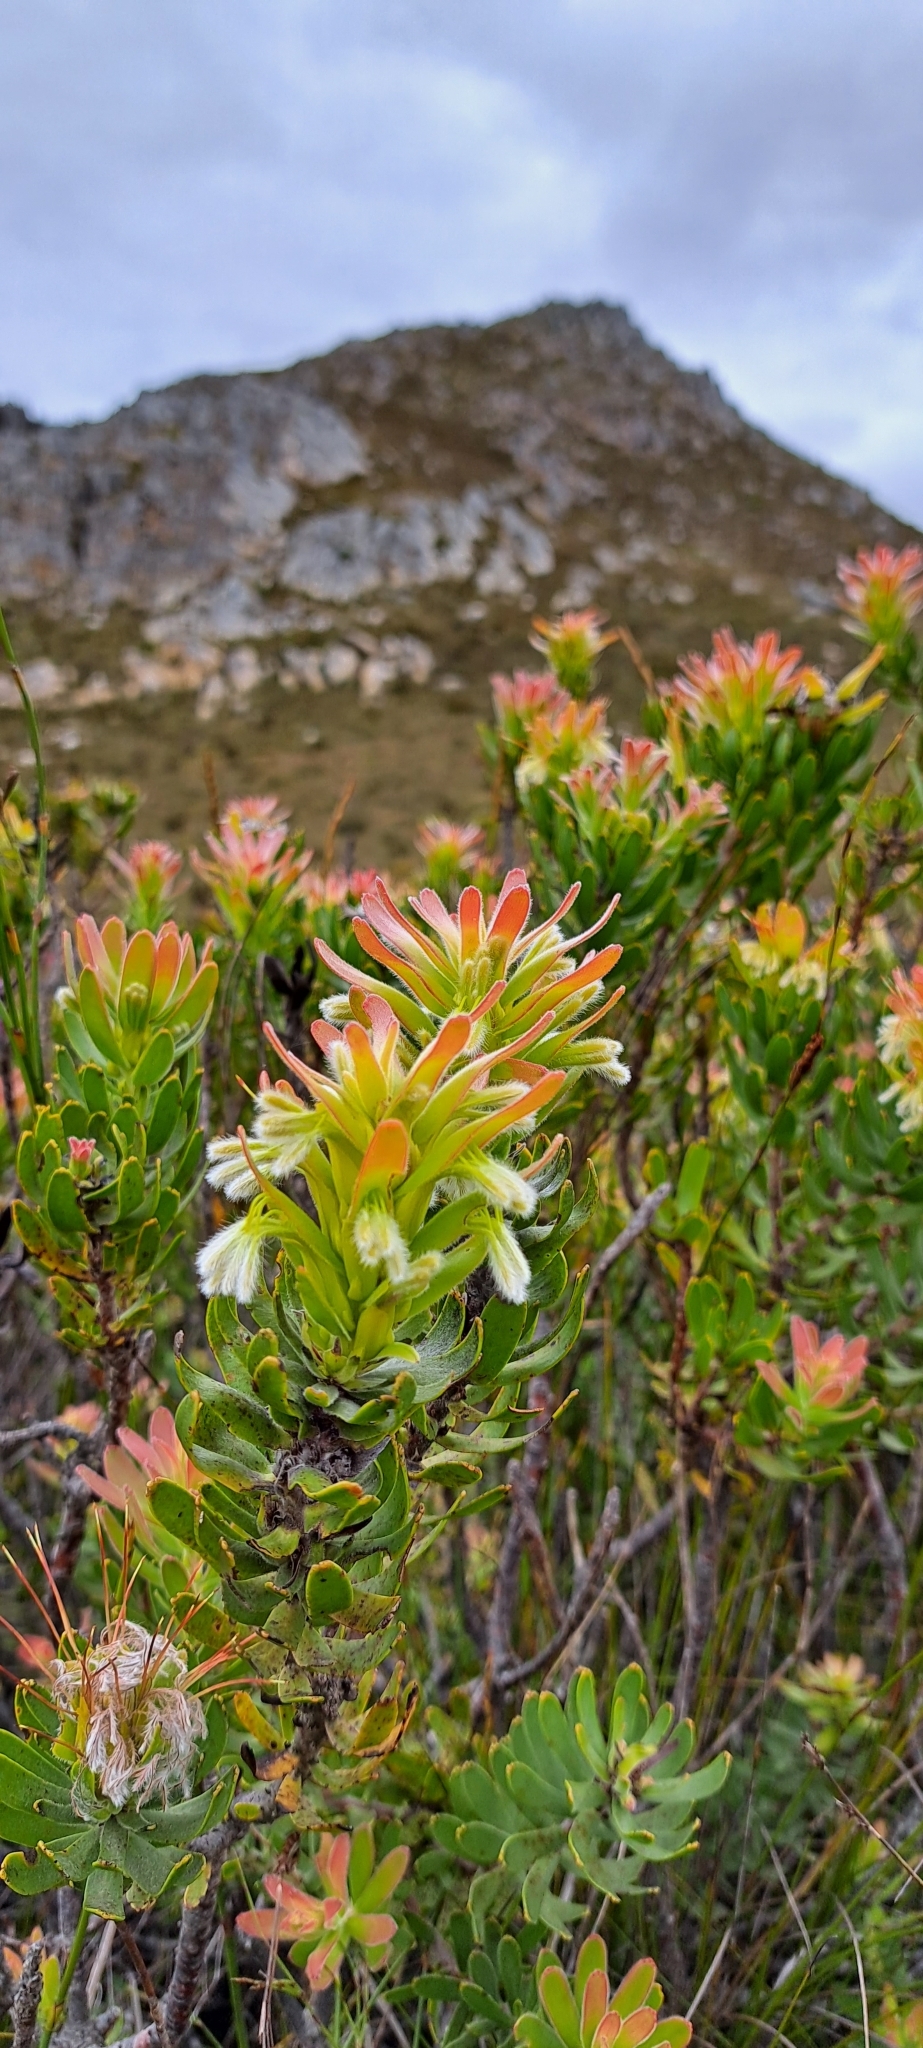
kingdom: Plantae
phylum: Tracheophyta
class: Magnoliopsida
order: Proteales
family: Proteaceae
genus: Mimetes
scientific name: Mimetes cucullatus
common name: Common pagoda
